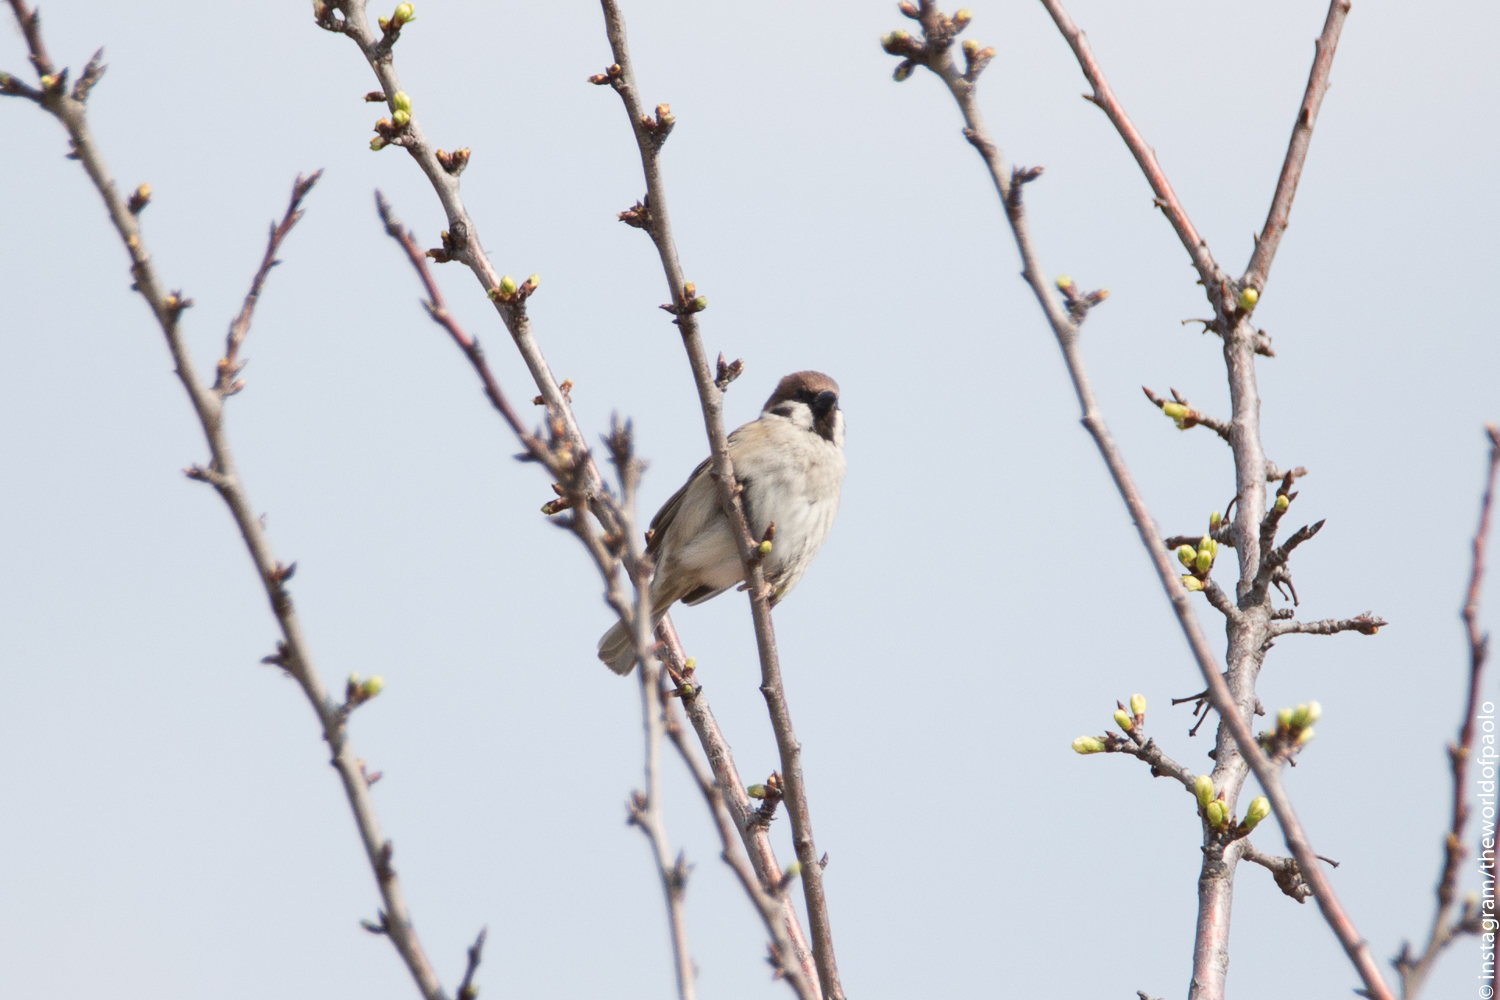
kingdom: Animalia
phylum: Chordata
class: Aves
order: Passeriformes
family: Passeridae
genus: Passer
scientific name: Passer montanus
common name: Eurasian tree sparrow
